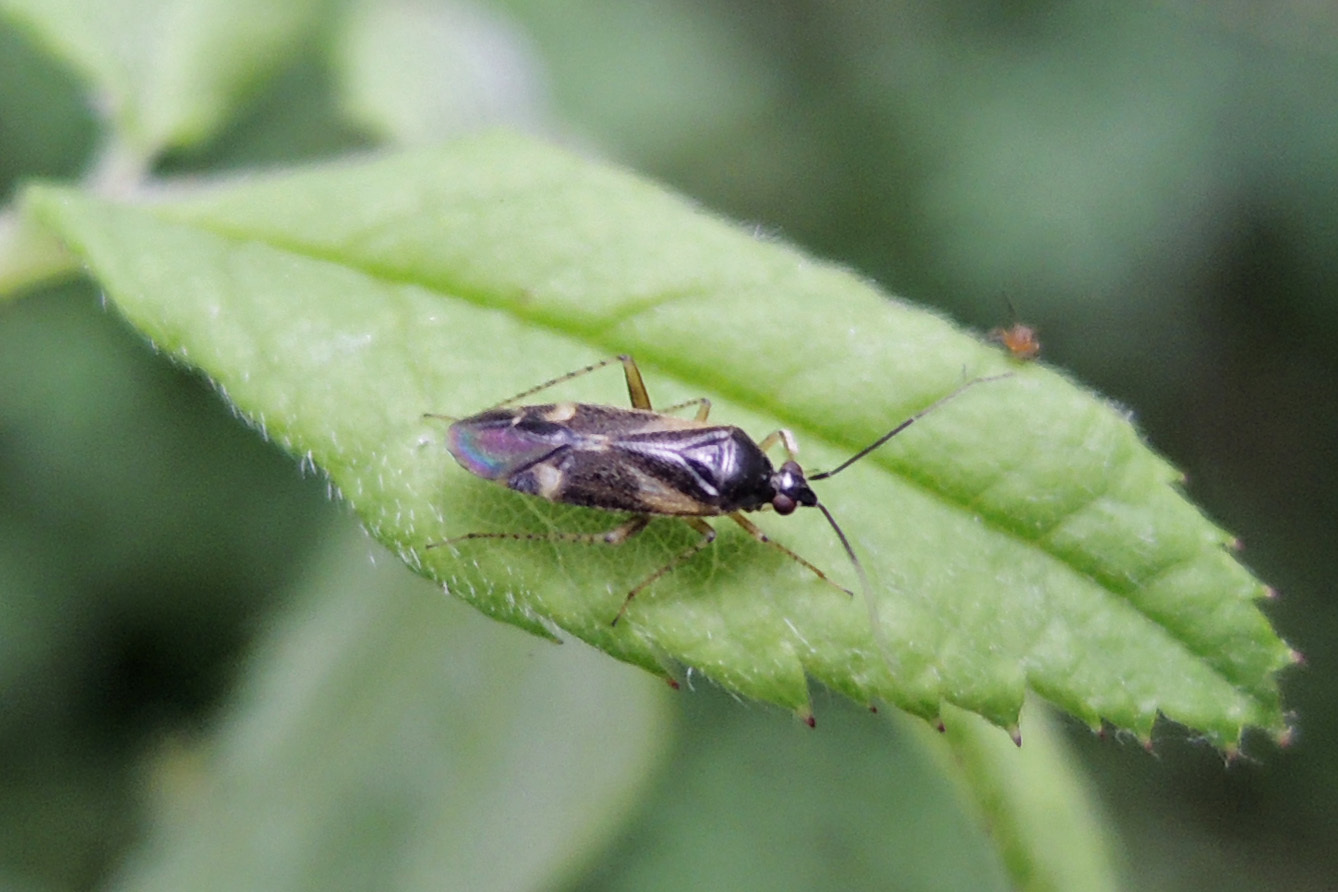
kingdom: Animalia
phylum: Arthropoda
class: Insecta
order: Hemiptera
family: Miridae
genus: Plagiognathus
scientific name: Plagiognathus obscurus
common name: Obscure plant bug
